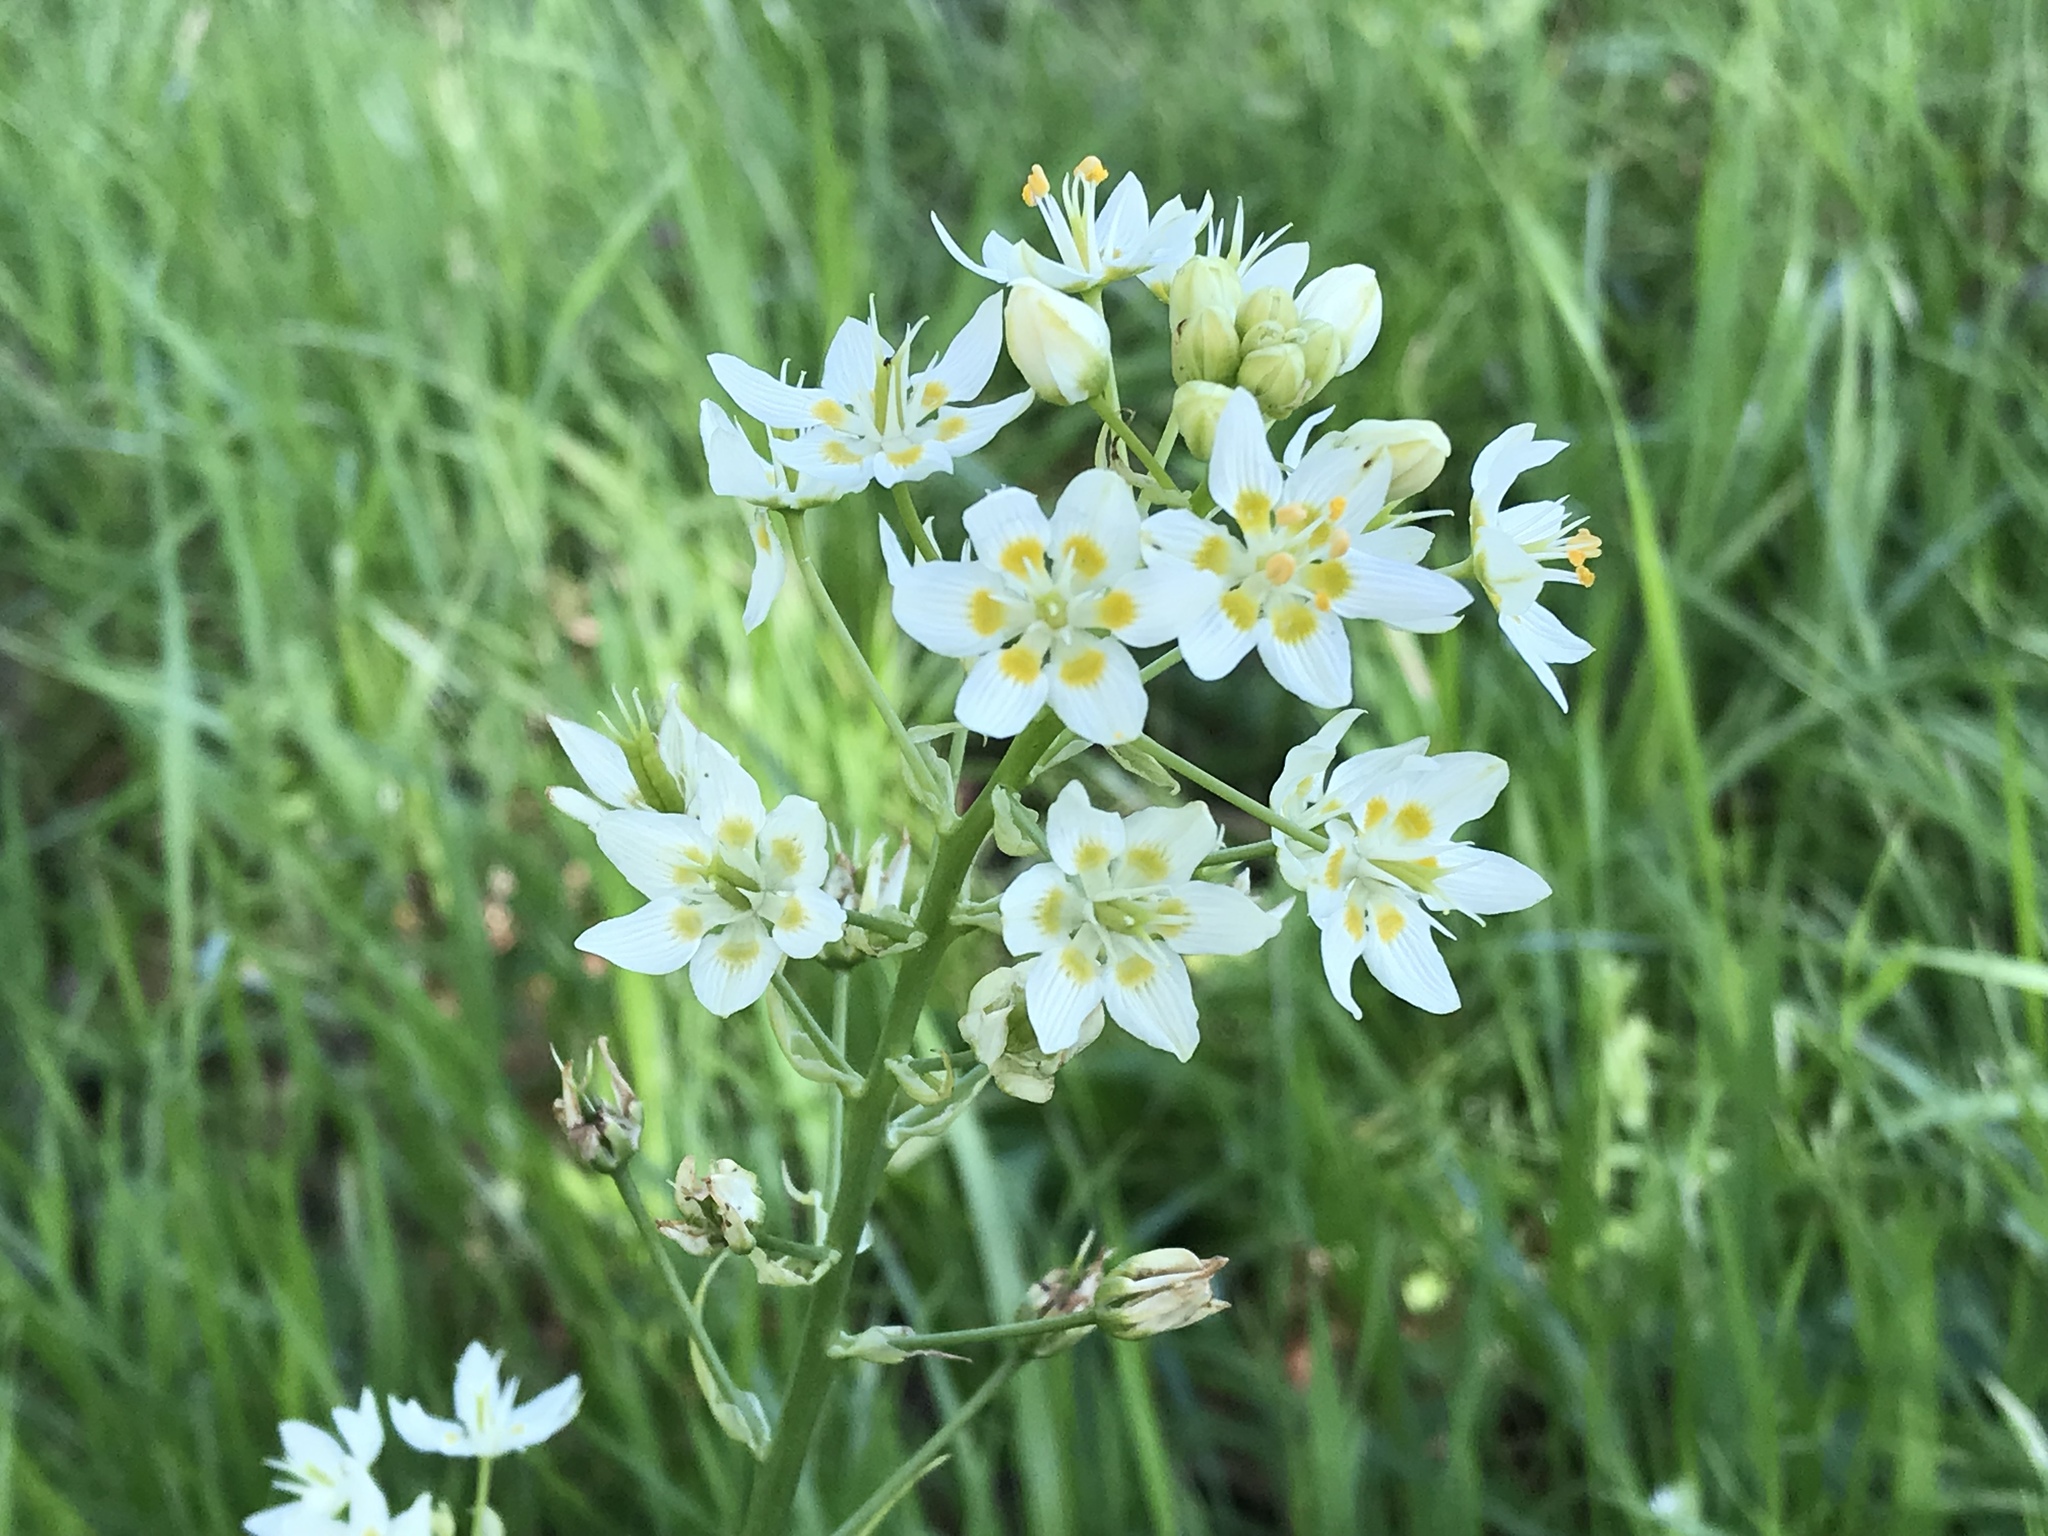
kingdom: Plantae
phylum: Tracheophyta
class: Liliopsida
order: Liliales
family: Melanthiaceae
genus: Toxicoscordion
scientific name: Toxicoscordion fremontii
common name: Fremont's death camas
